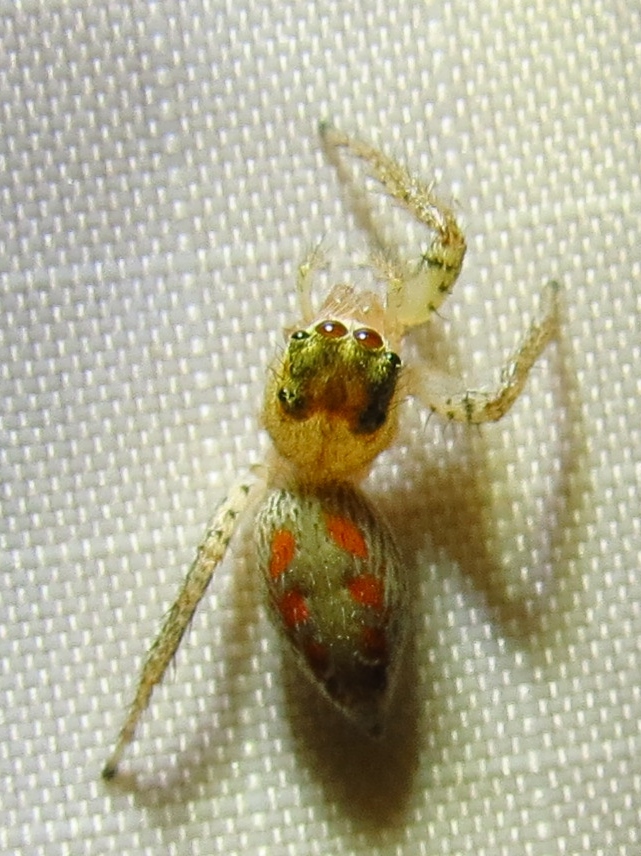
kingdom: Animalia
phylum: Arthropoda
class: Arachnida
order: Araneae
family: Salticidae
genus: Maevia
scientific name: Maevia inclemens
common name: Dimorphic jumper
